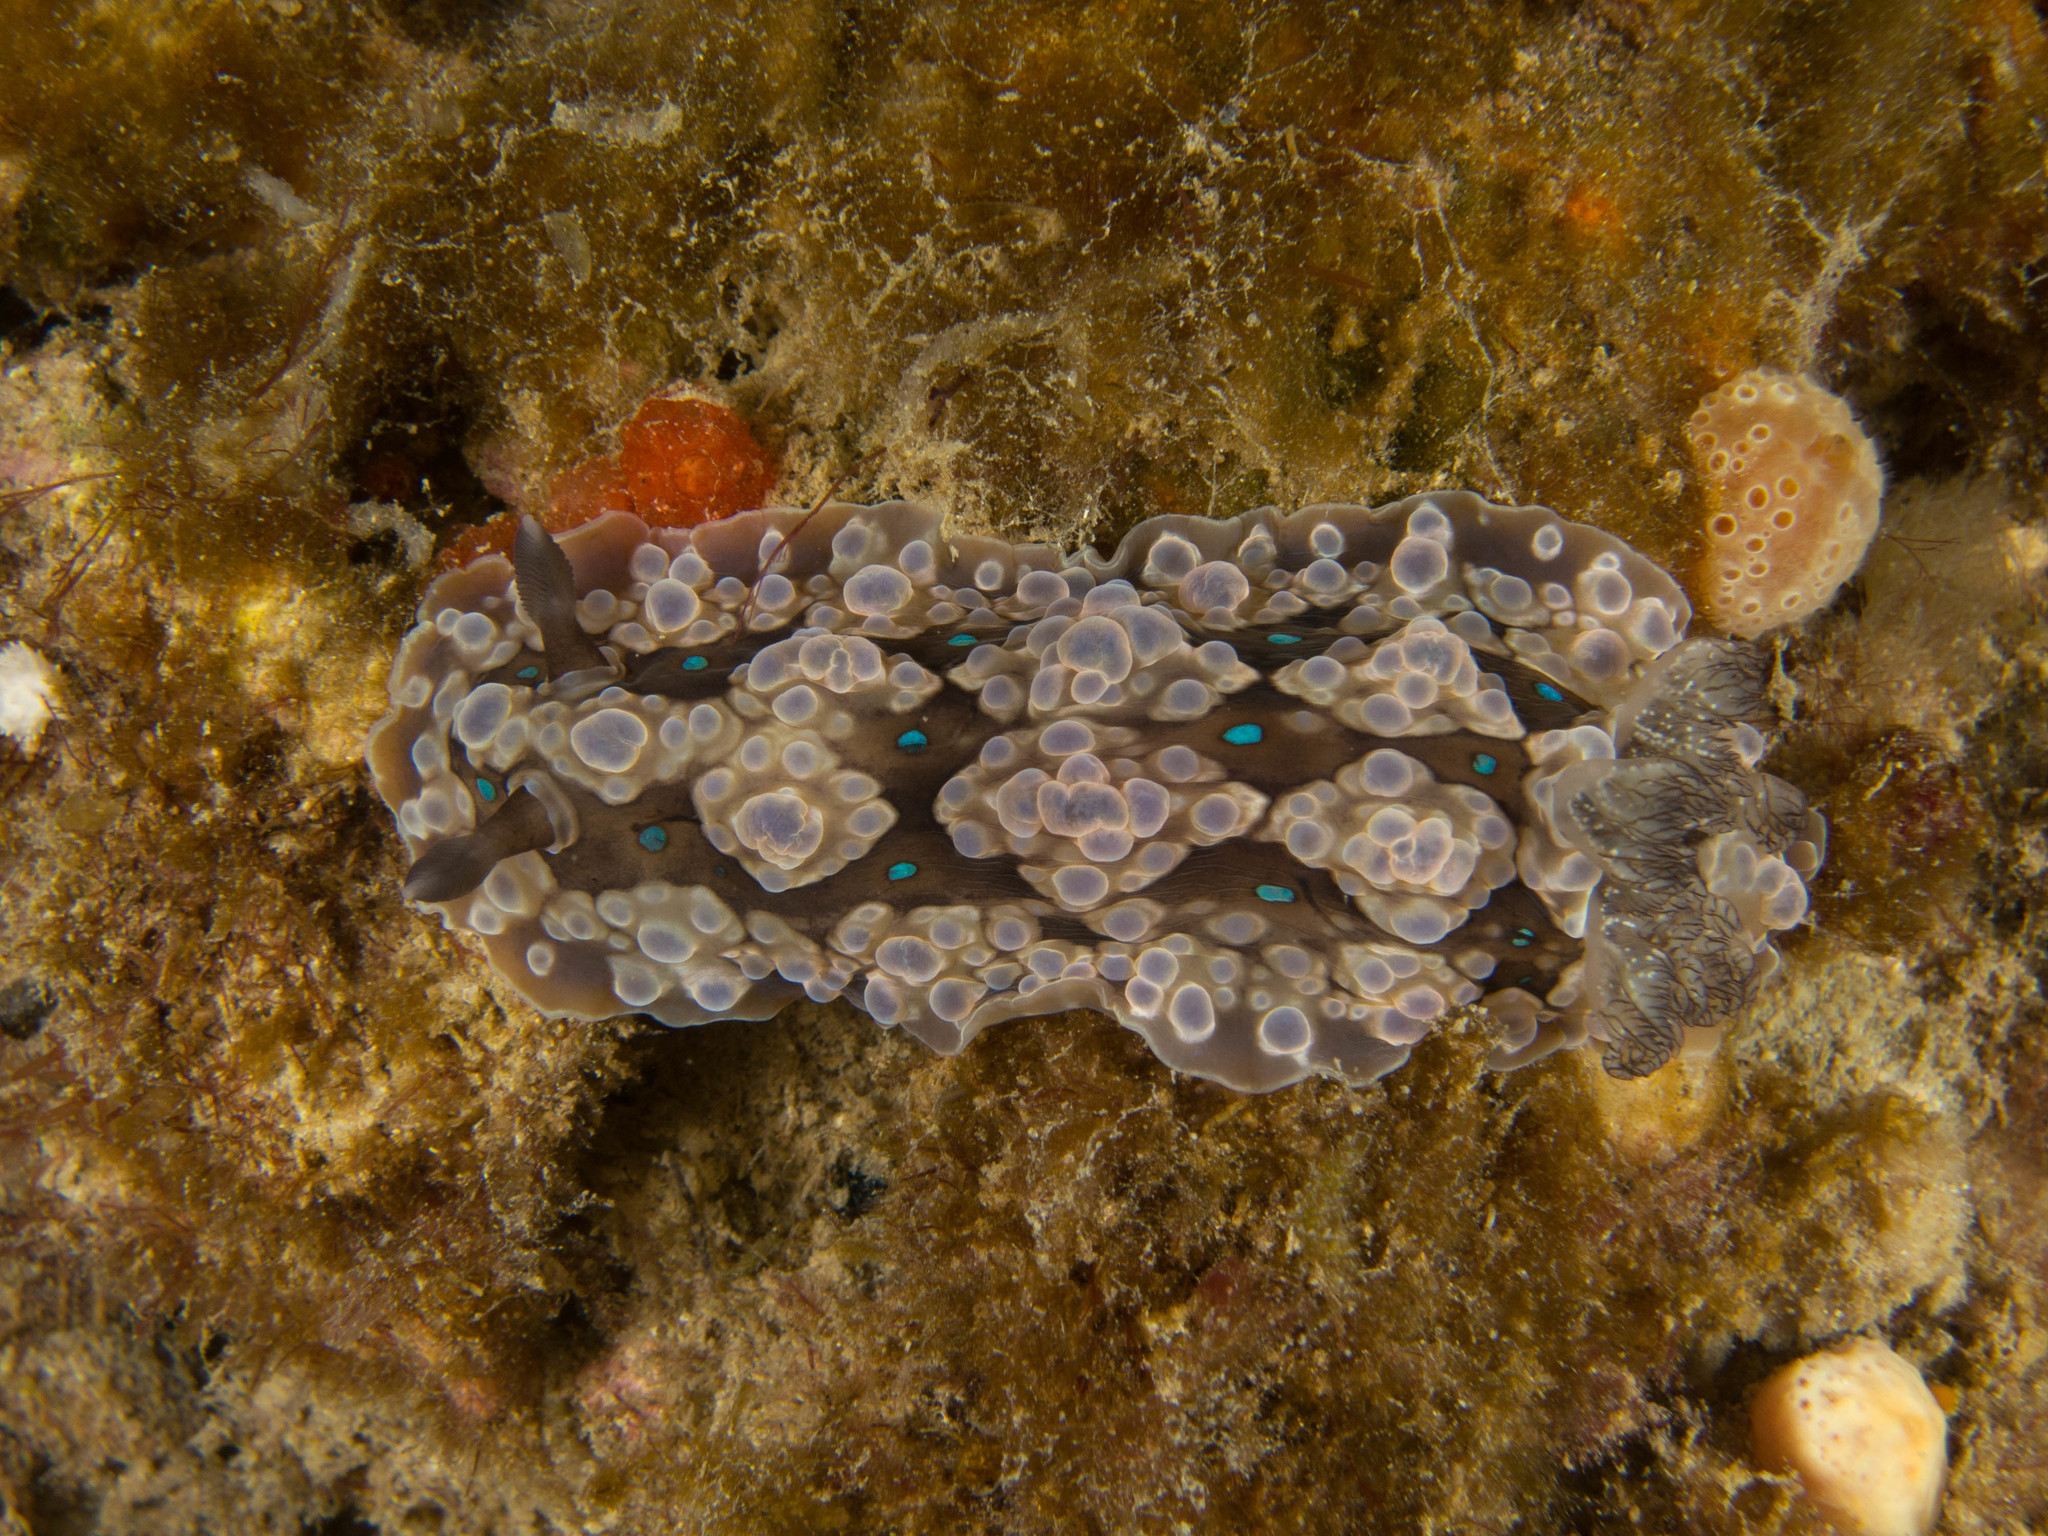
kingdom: Animalia
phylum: Mollusca
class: Gastropoda
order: Nudibranchia
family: Dendrodorididae
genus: Dendrodoris
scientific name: Dendrodoris krusensternii
